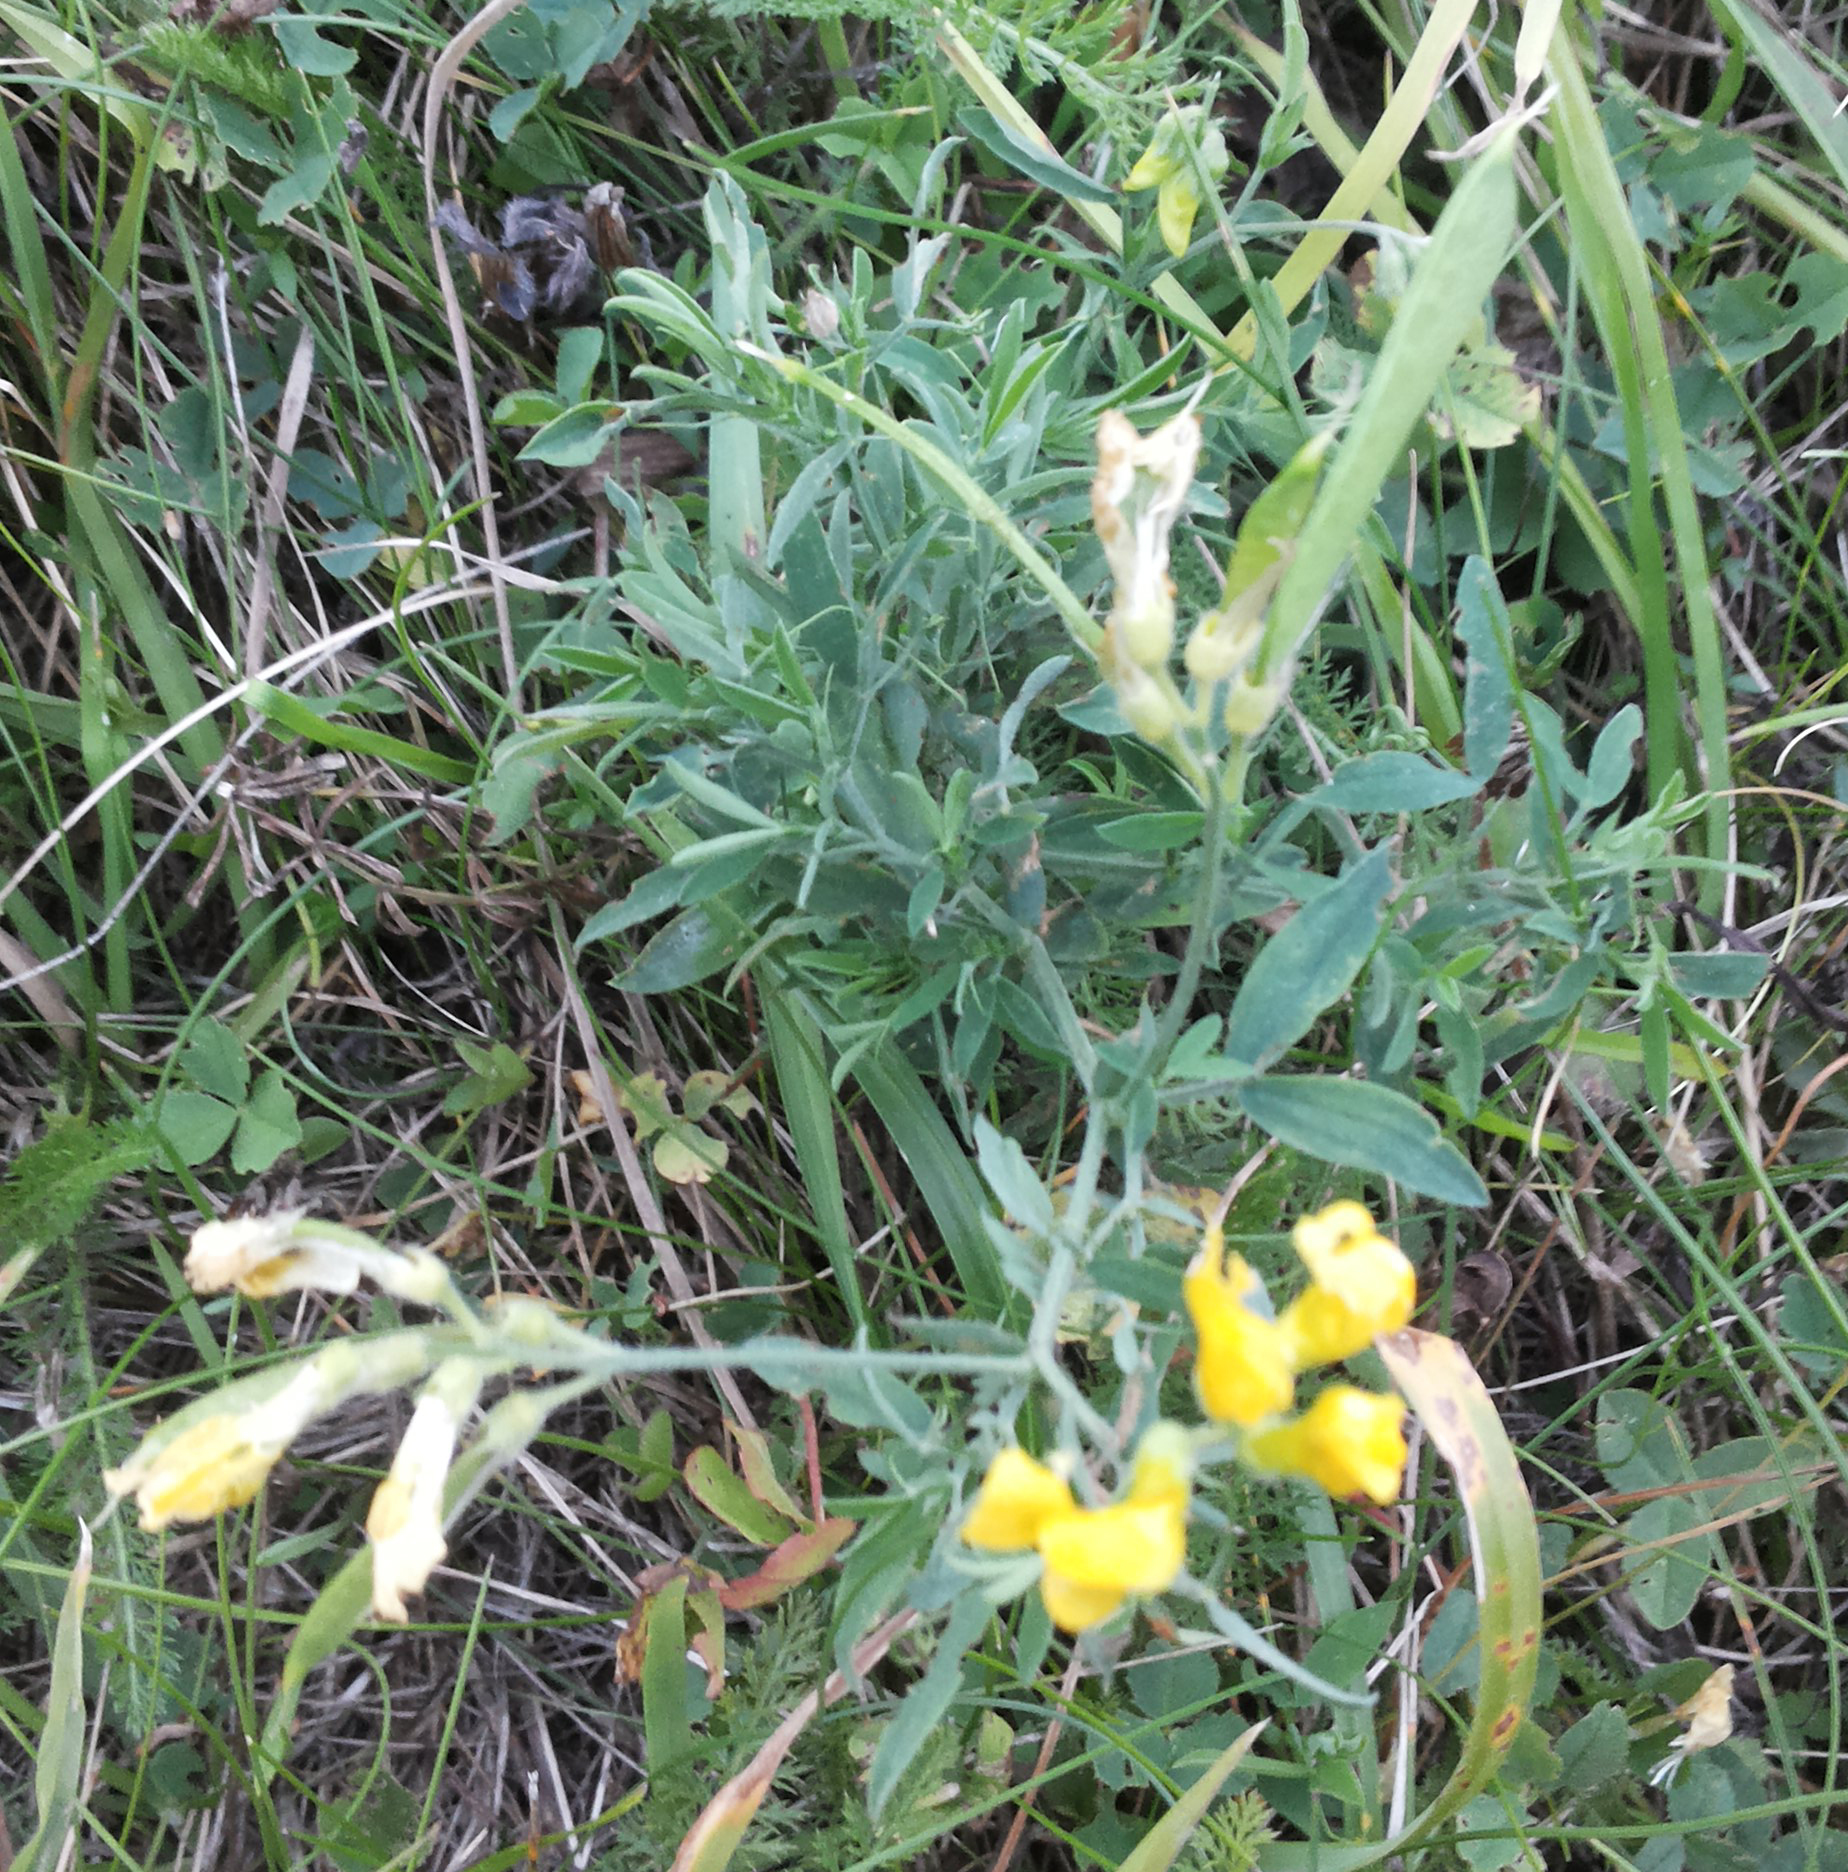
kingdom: Plantae
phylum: Tracheophyta
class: Magnoliopsida
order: Fabales
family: Fabaceae
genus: Lathyrus
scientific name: Lathyrus pratensis
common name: Meadow vetchling
